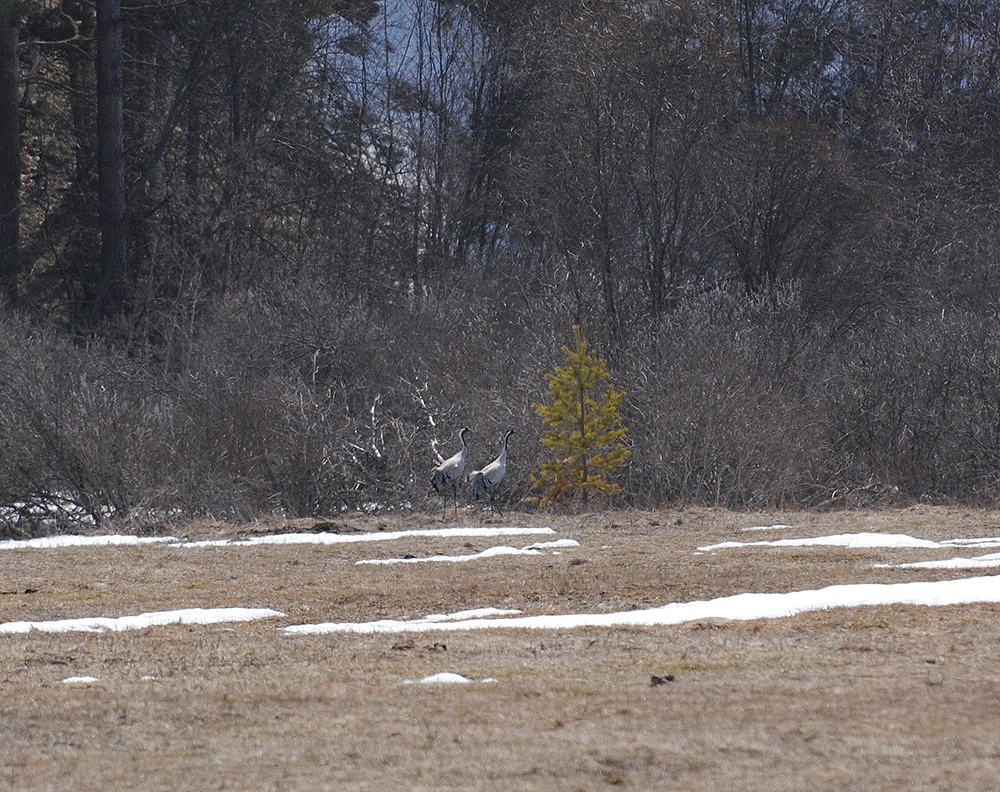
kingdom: Animalia
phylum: Chordata
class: Aves
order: Gruiformes
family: Gruidae
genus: Grus
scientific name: Grus grus
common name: Common crane
